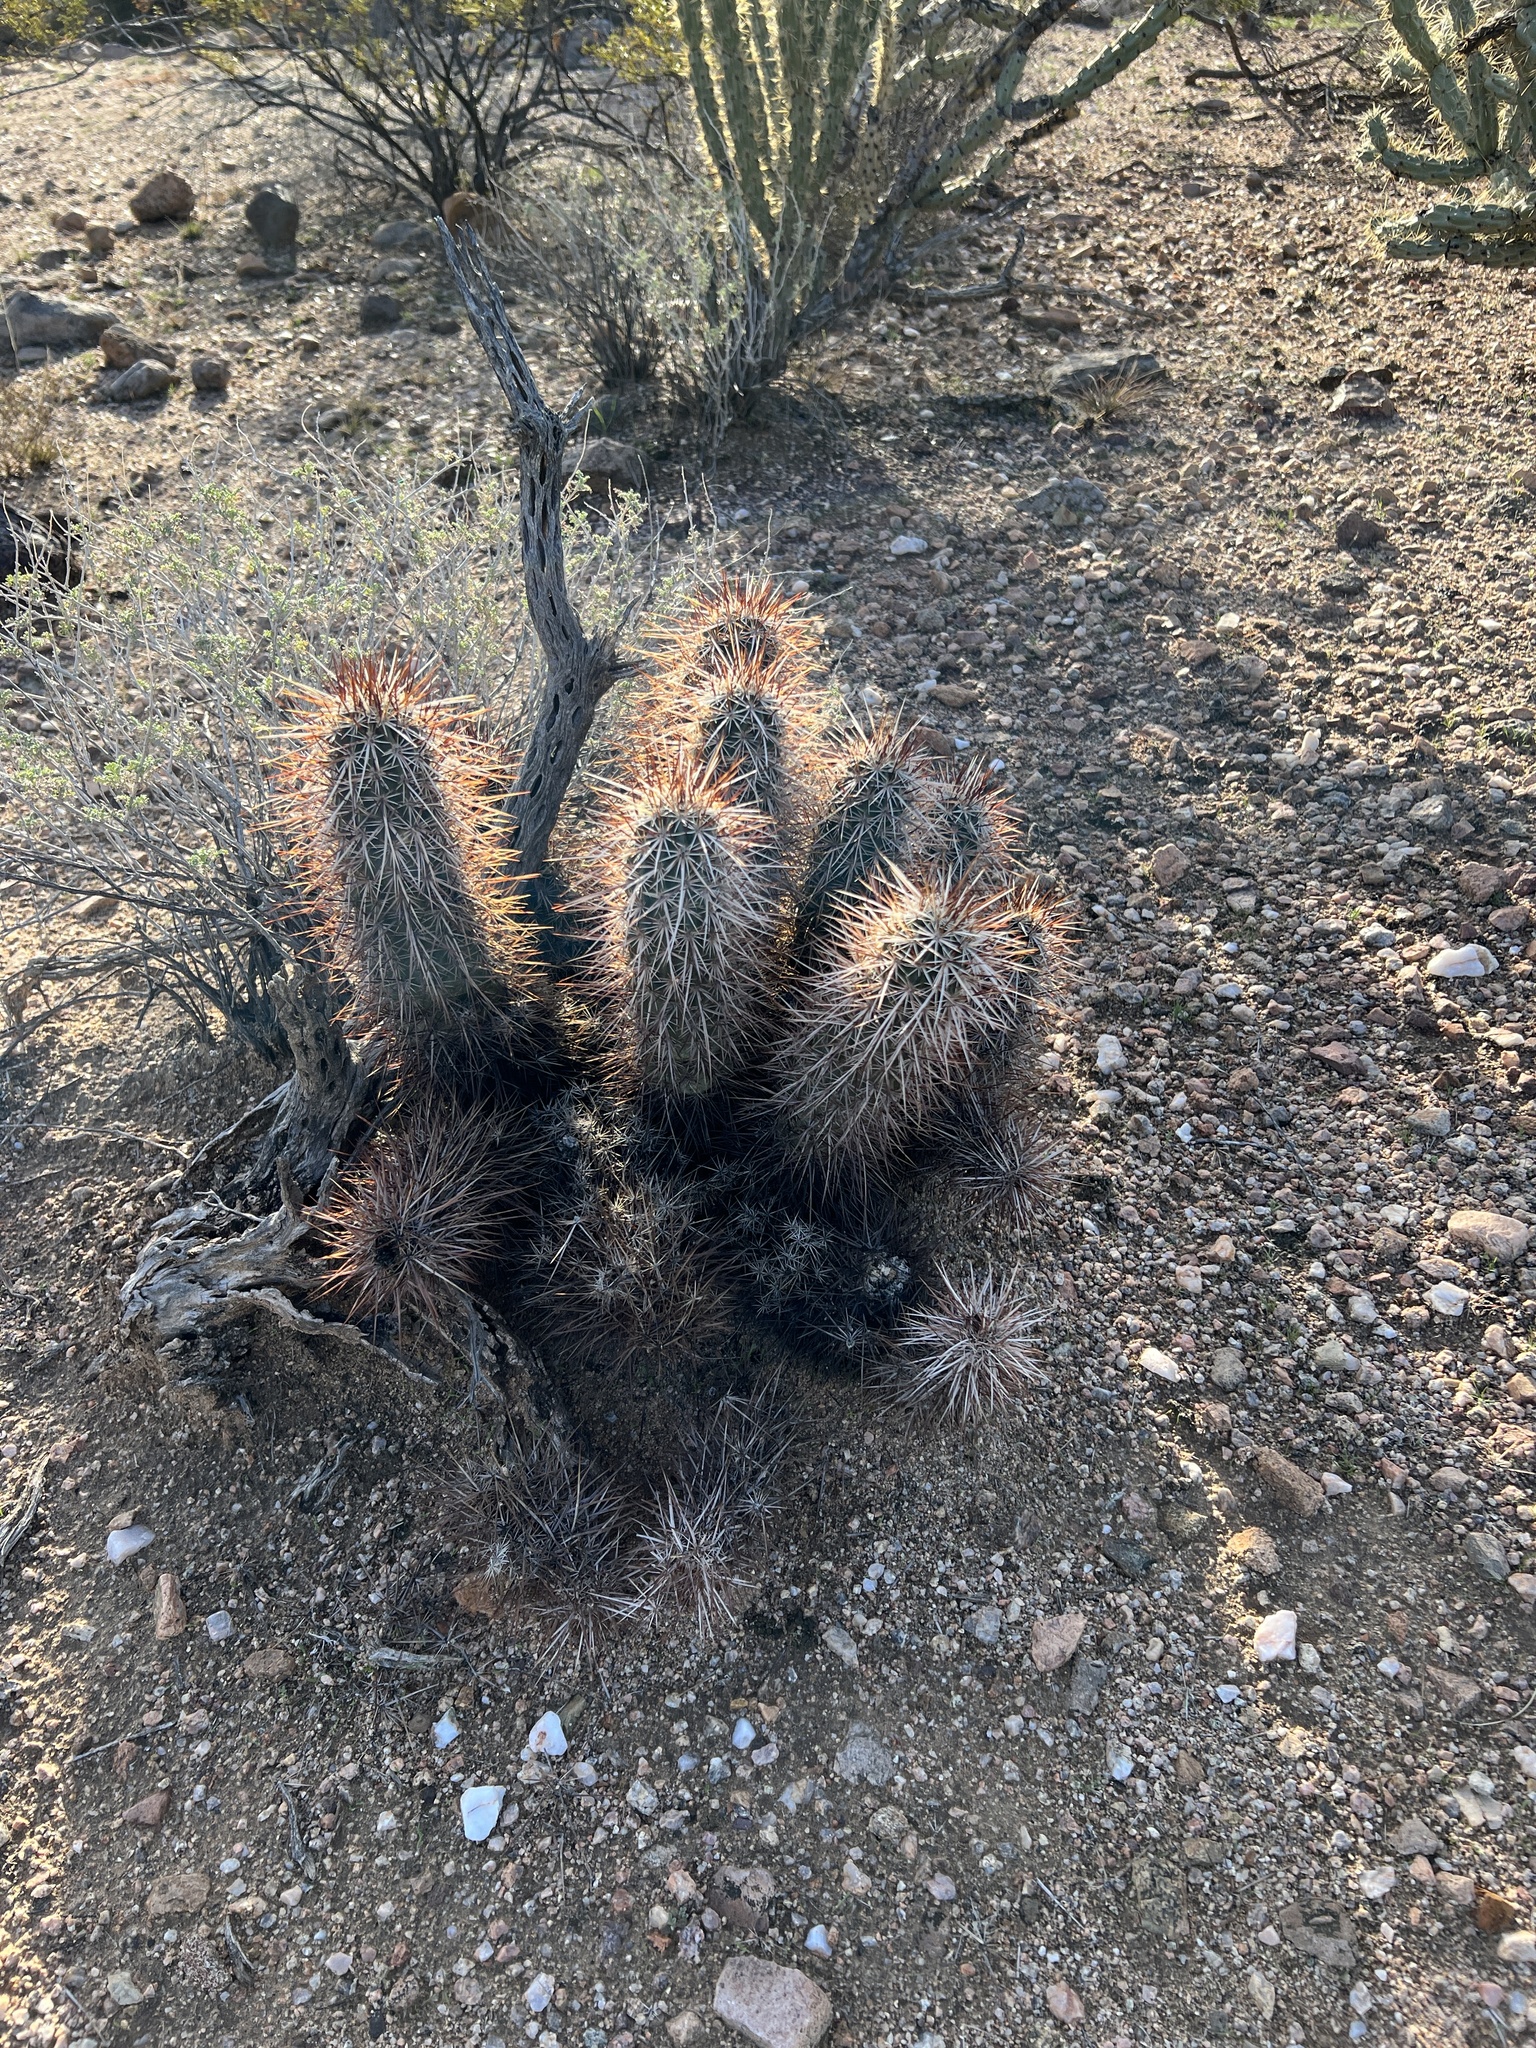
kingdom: Plantae
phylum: Tracheophyta
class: Magnoliopsida
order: Caryophyllales
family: Cactaceae
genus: Echinocereus
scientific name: Echinocereus engelmannii
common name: Engelmann's hedgehog cactus
